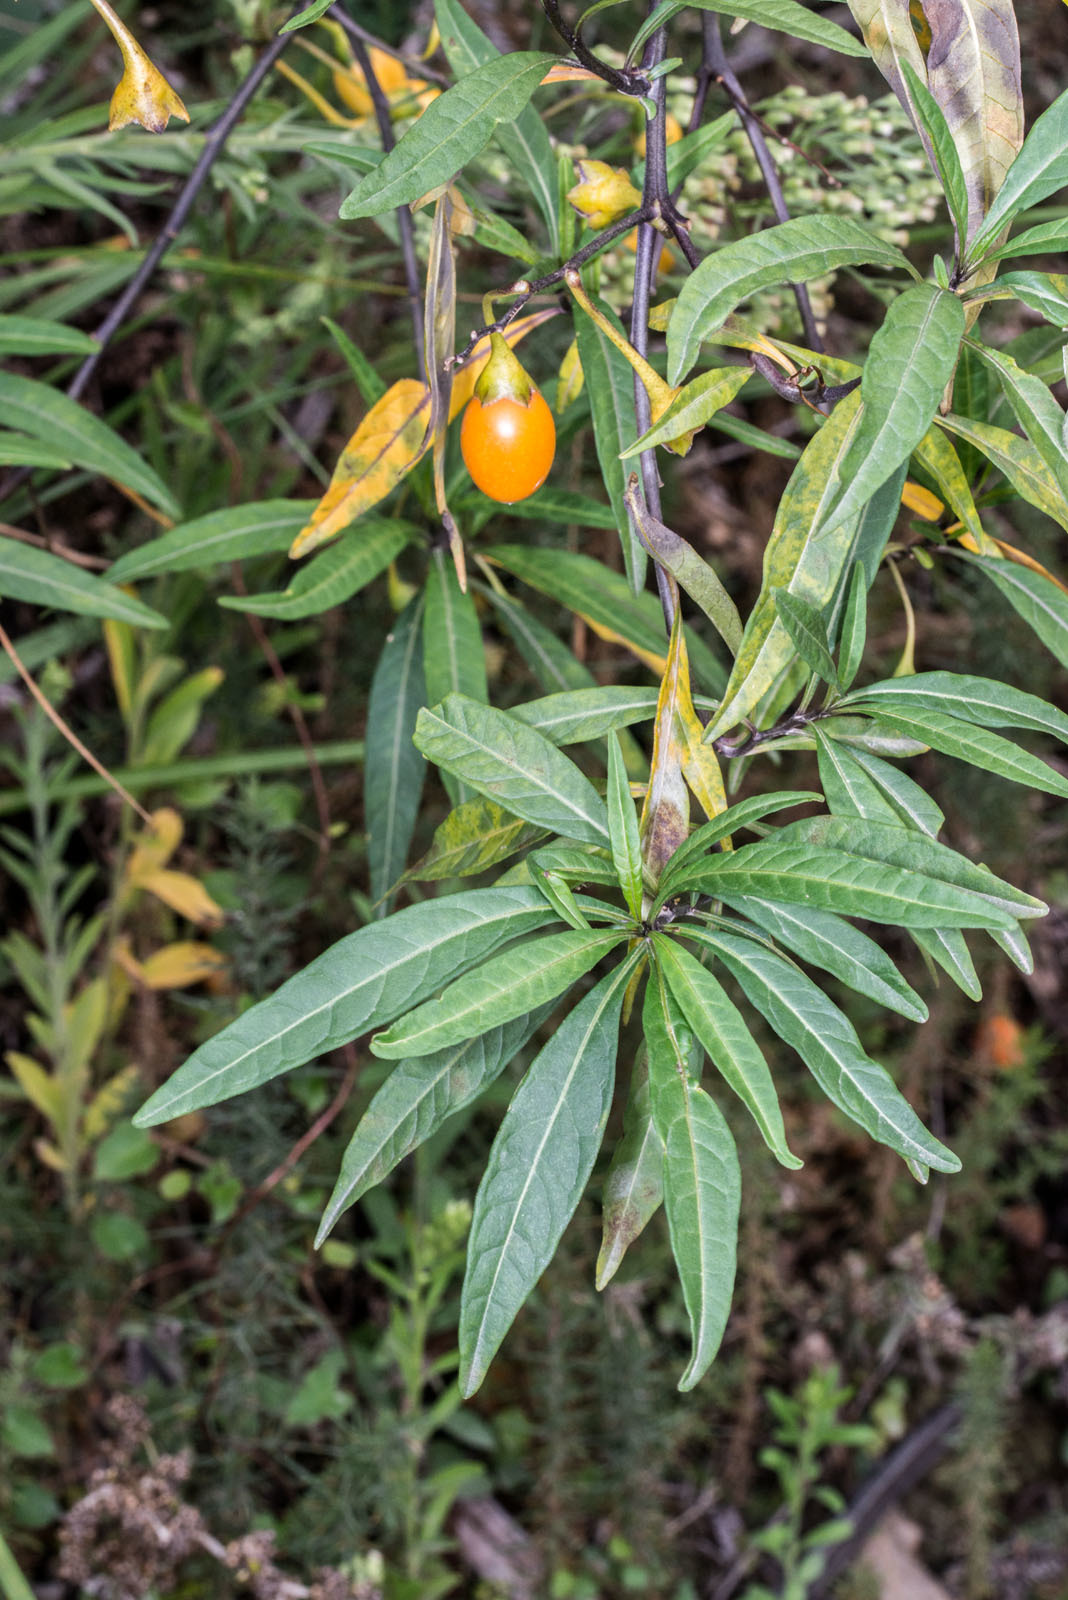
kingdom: Plantae
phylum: Tracheophyta
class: Magnoliopsida
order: Solanales
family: Solanaceae
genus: Solanum
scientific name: Solanum laciniatum
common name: Kangaroo-apple
